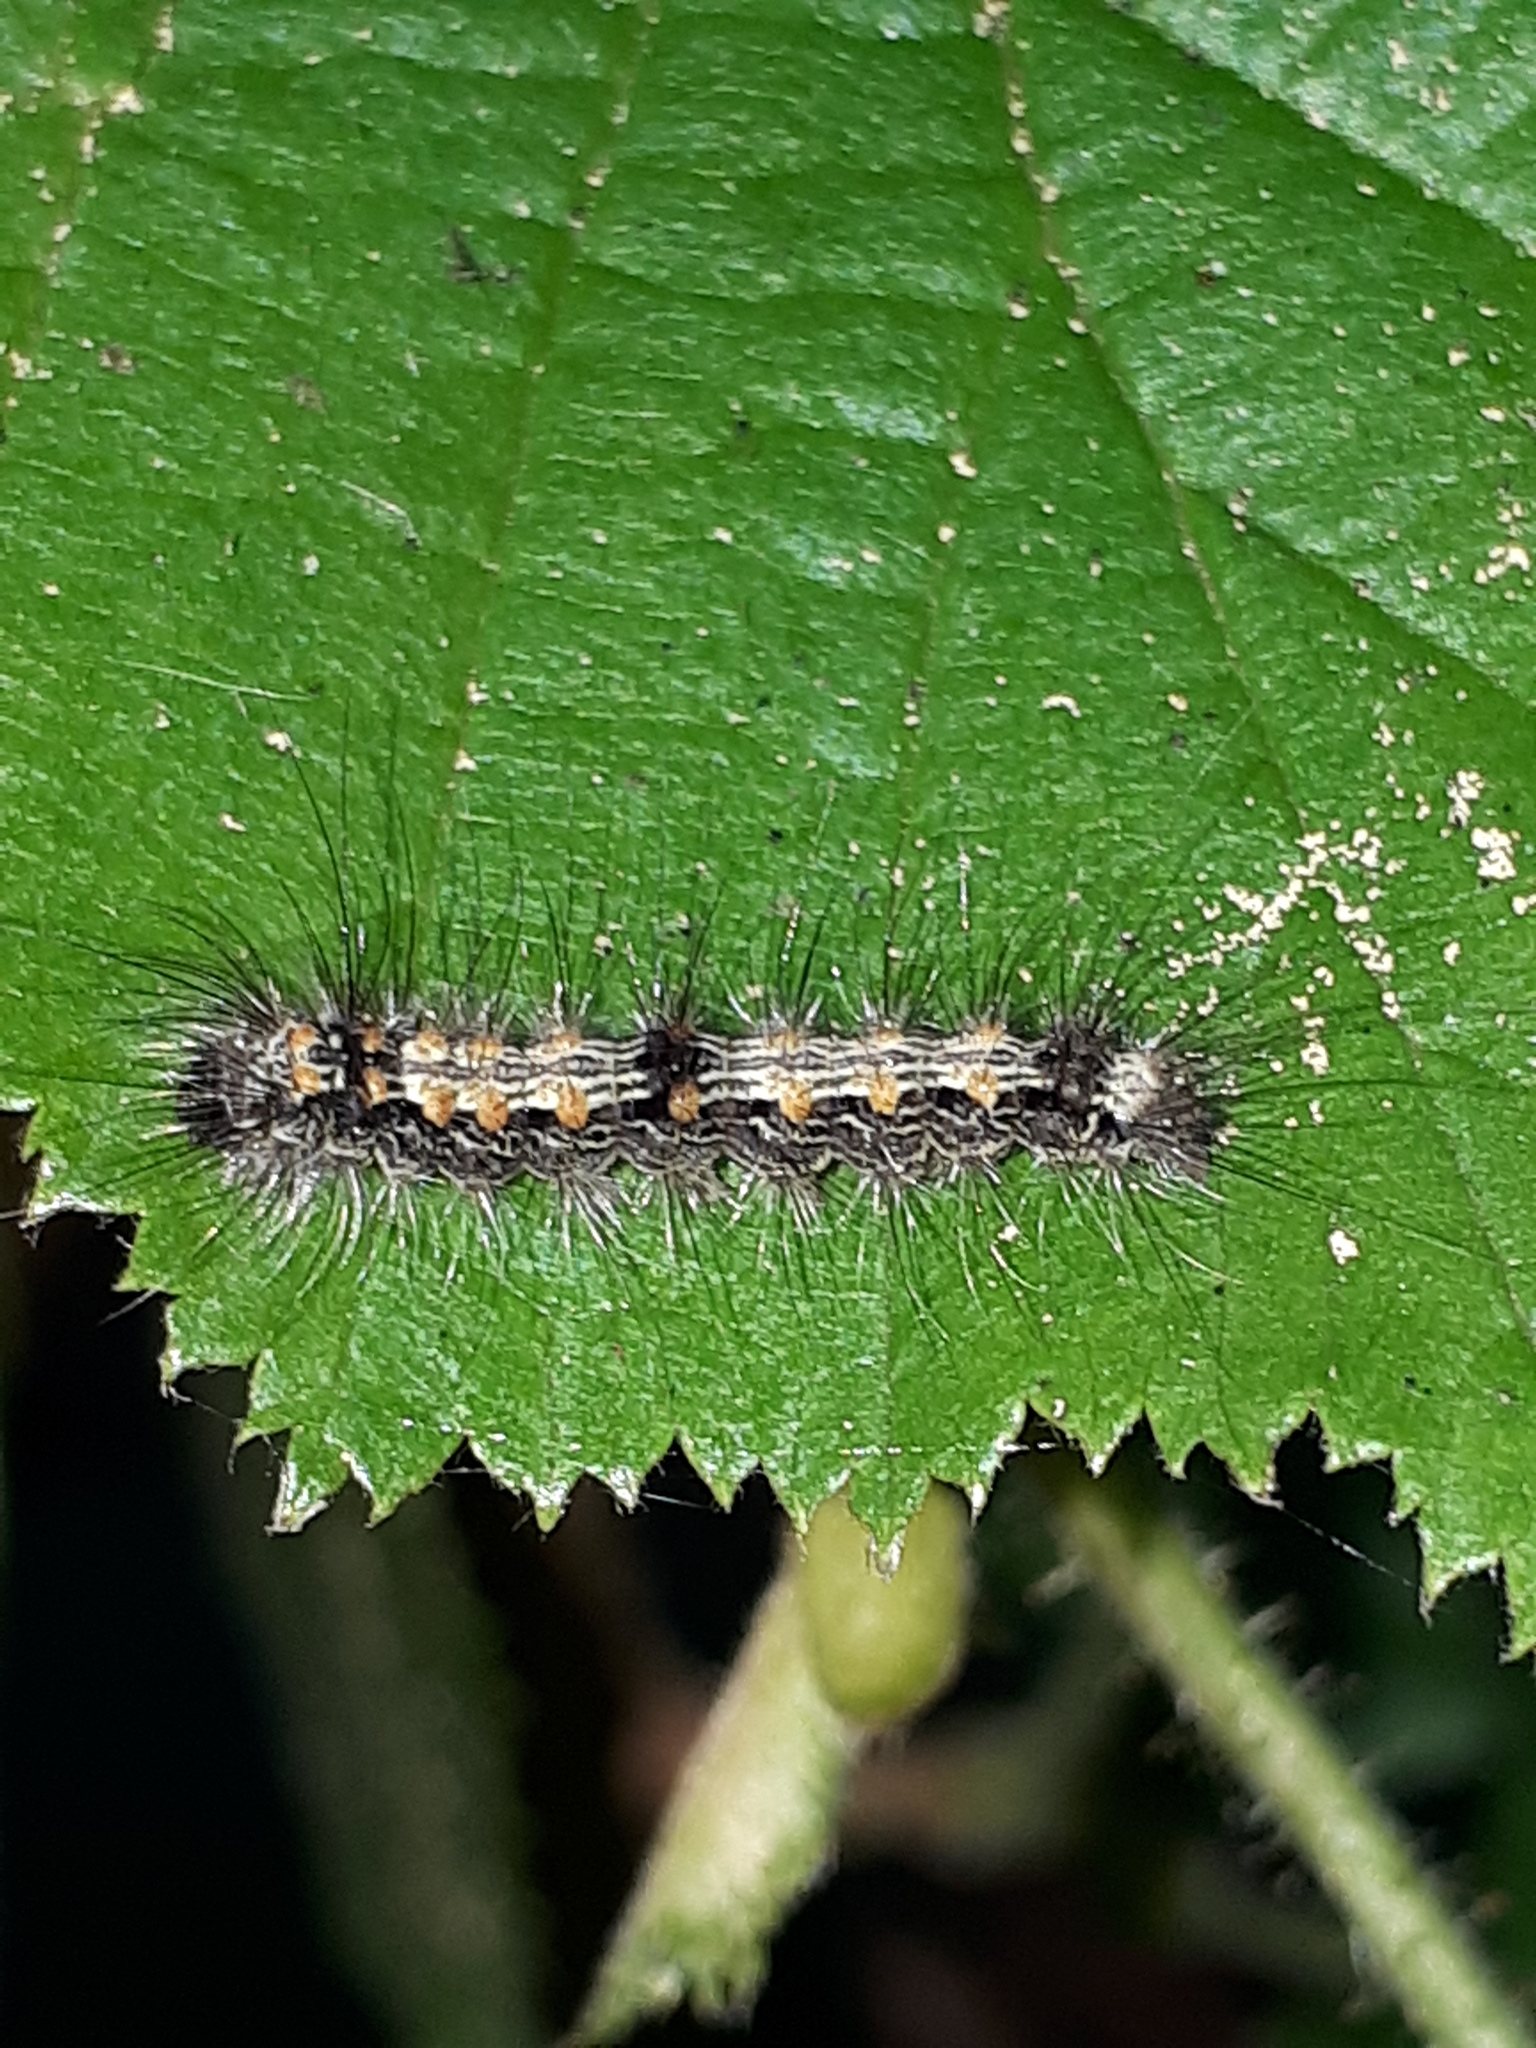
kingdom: Animalia
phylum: Arthropoda
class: Insecta
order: Lepidoptera
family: Erebidae
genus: Lithosia
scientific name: Lithosia quadra
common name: Four-spotted footman
